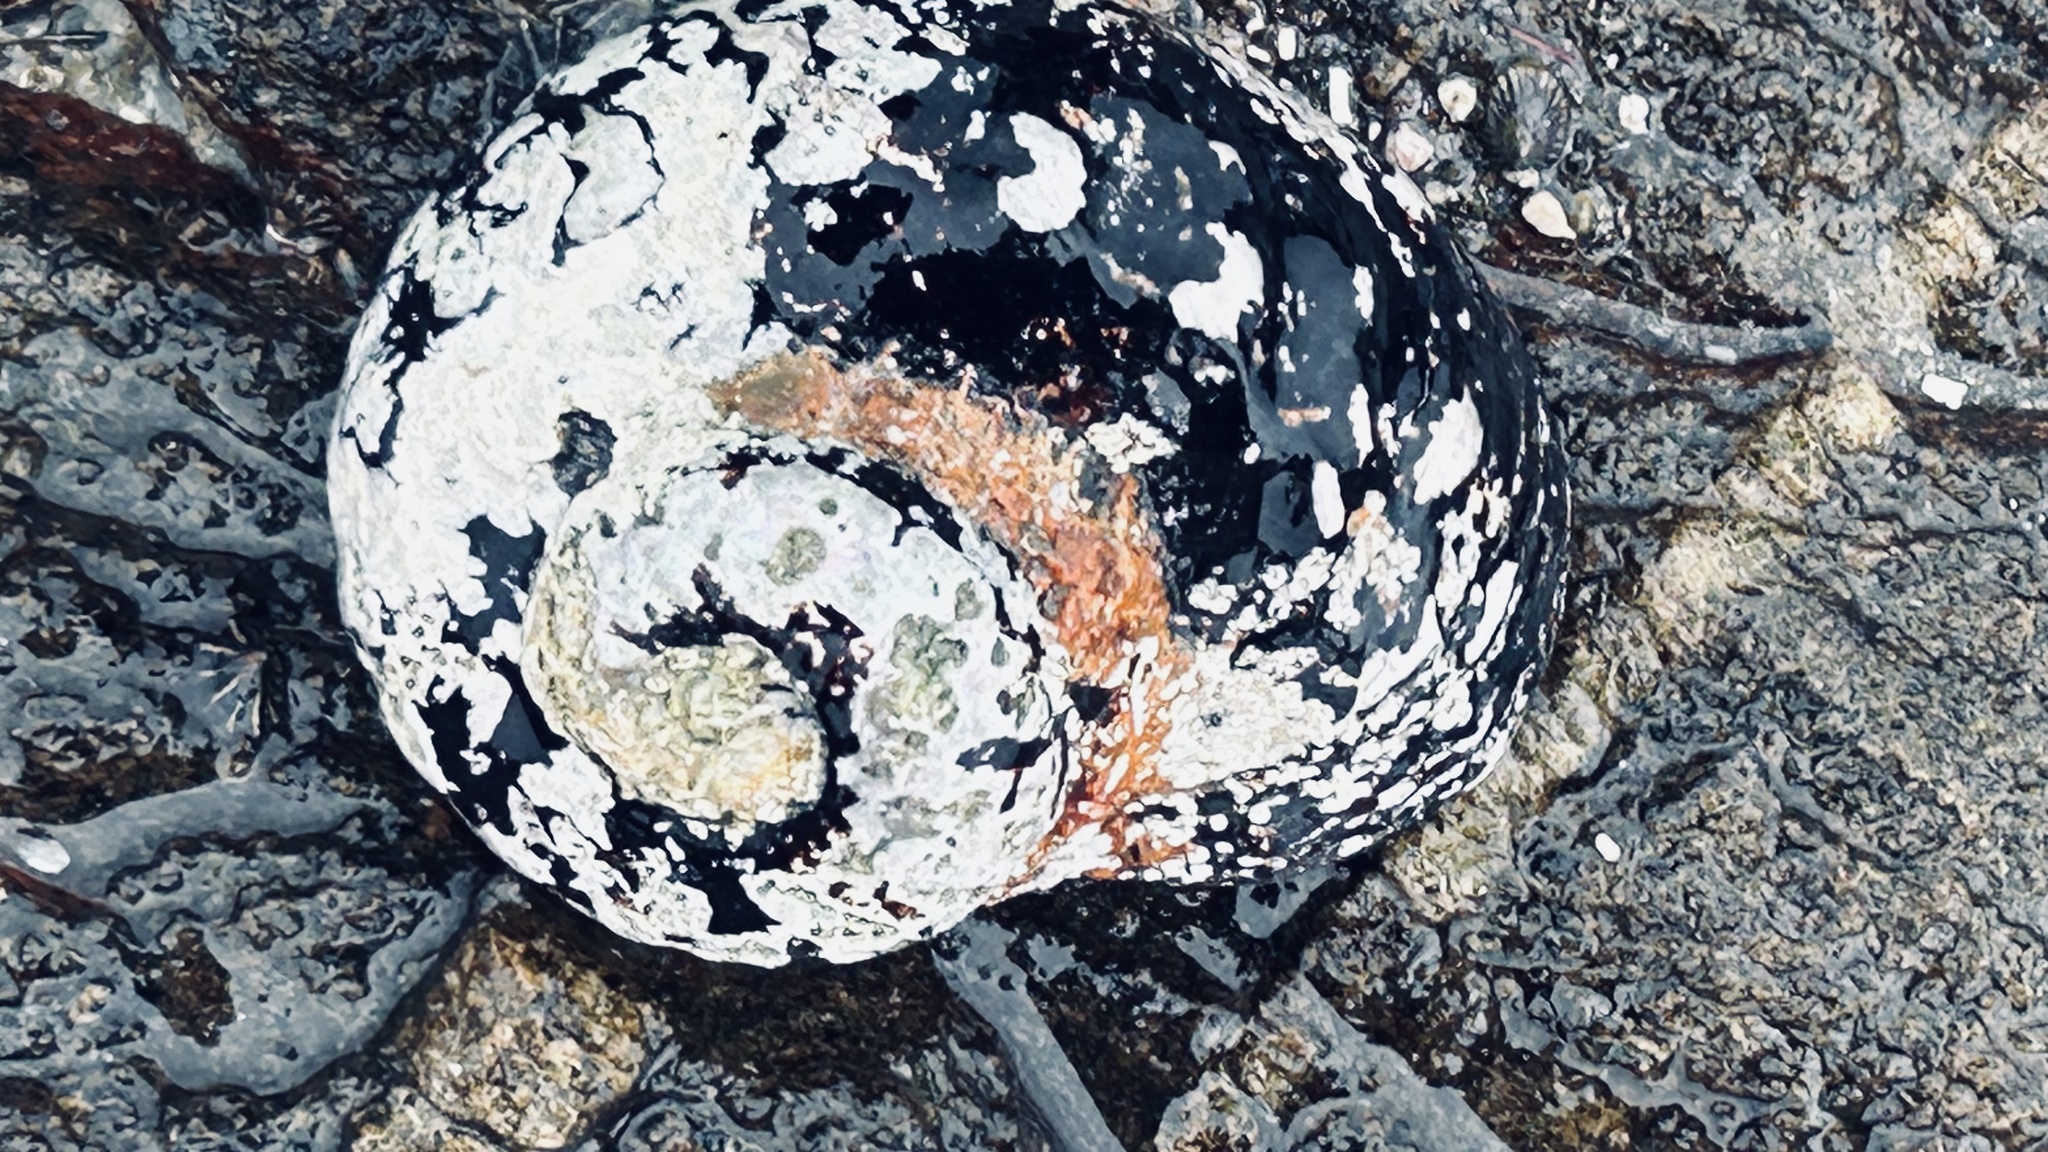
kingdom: Animalia
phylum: Mollusca
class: Gastropoda
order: Trochida
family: Turbinidae
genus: Turbo
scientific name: Turbo sarmaticus
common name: South african turban
